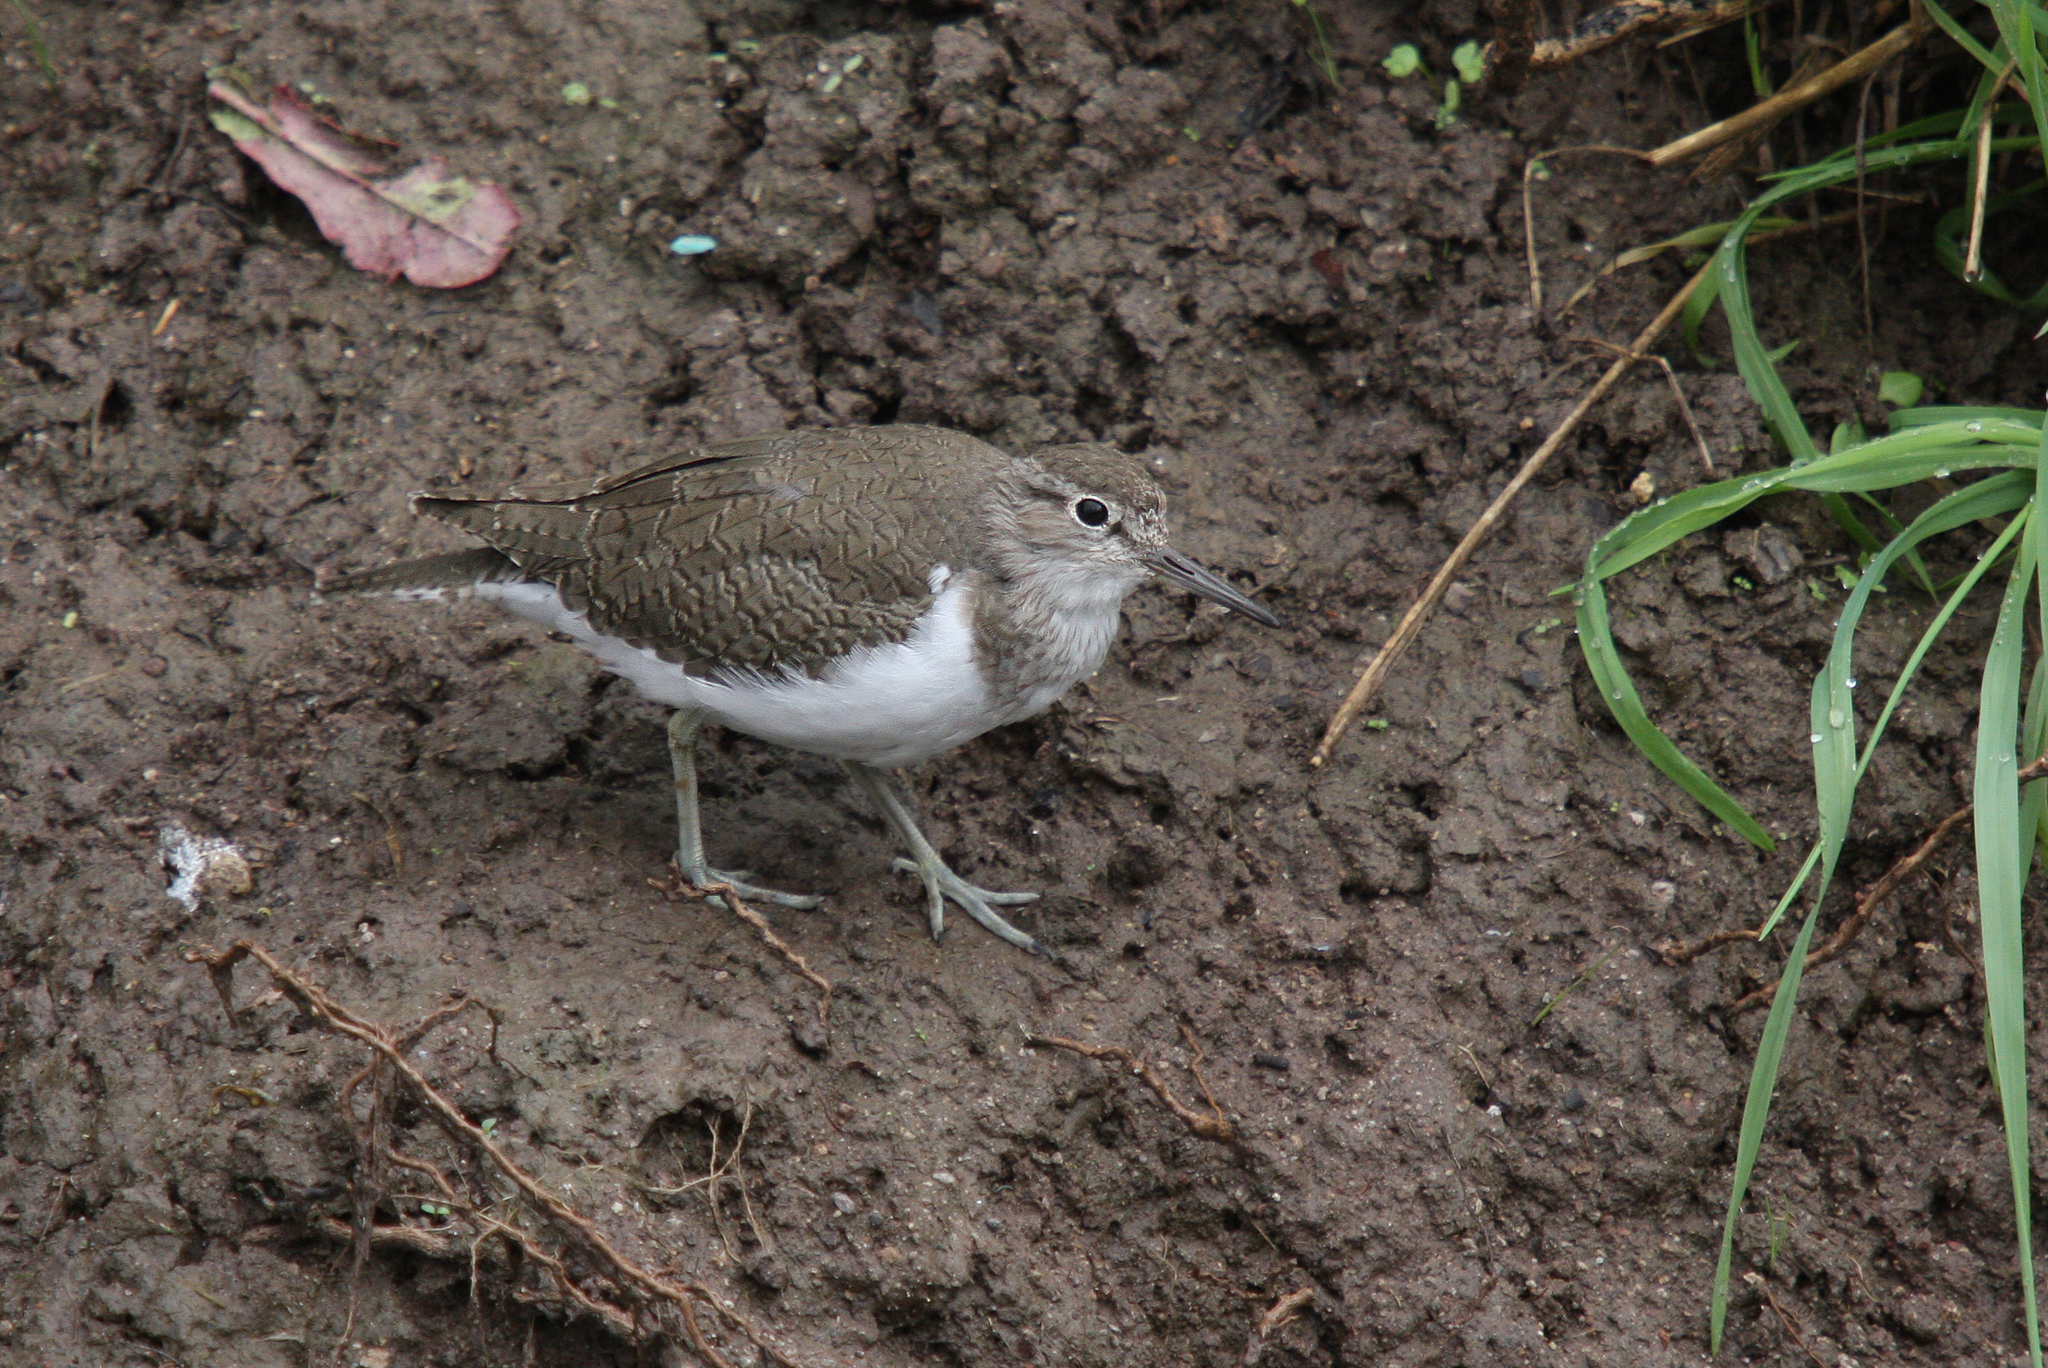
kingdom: Animalia
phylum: Chordata
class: Aves
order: Charadriiformes
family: Scolopacidae
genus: Actitis
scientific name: Actitis hypoleucos
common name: Common sandpiper
